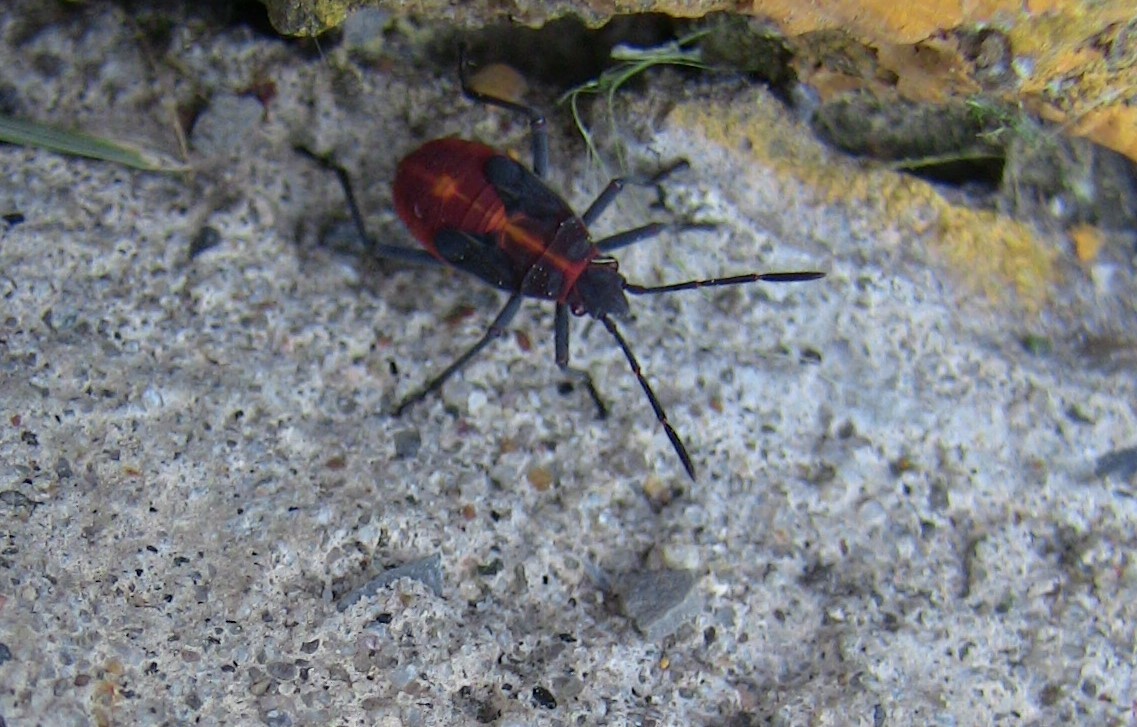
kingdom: Animalia
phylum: Arthropoda
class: Insecta
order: Hemiptera
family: Rhopalidae
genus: Boisea
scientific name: Boisea trivittata
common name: Boxelder bug
